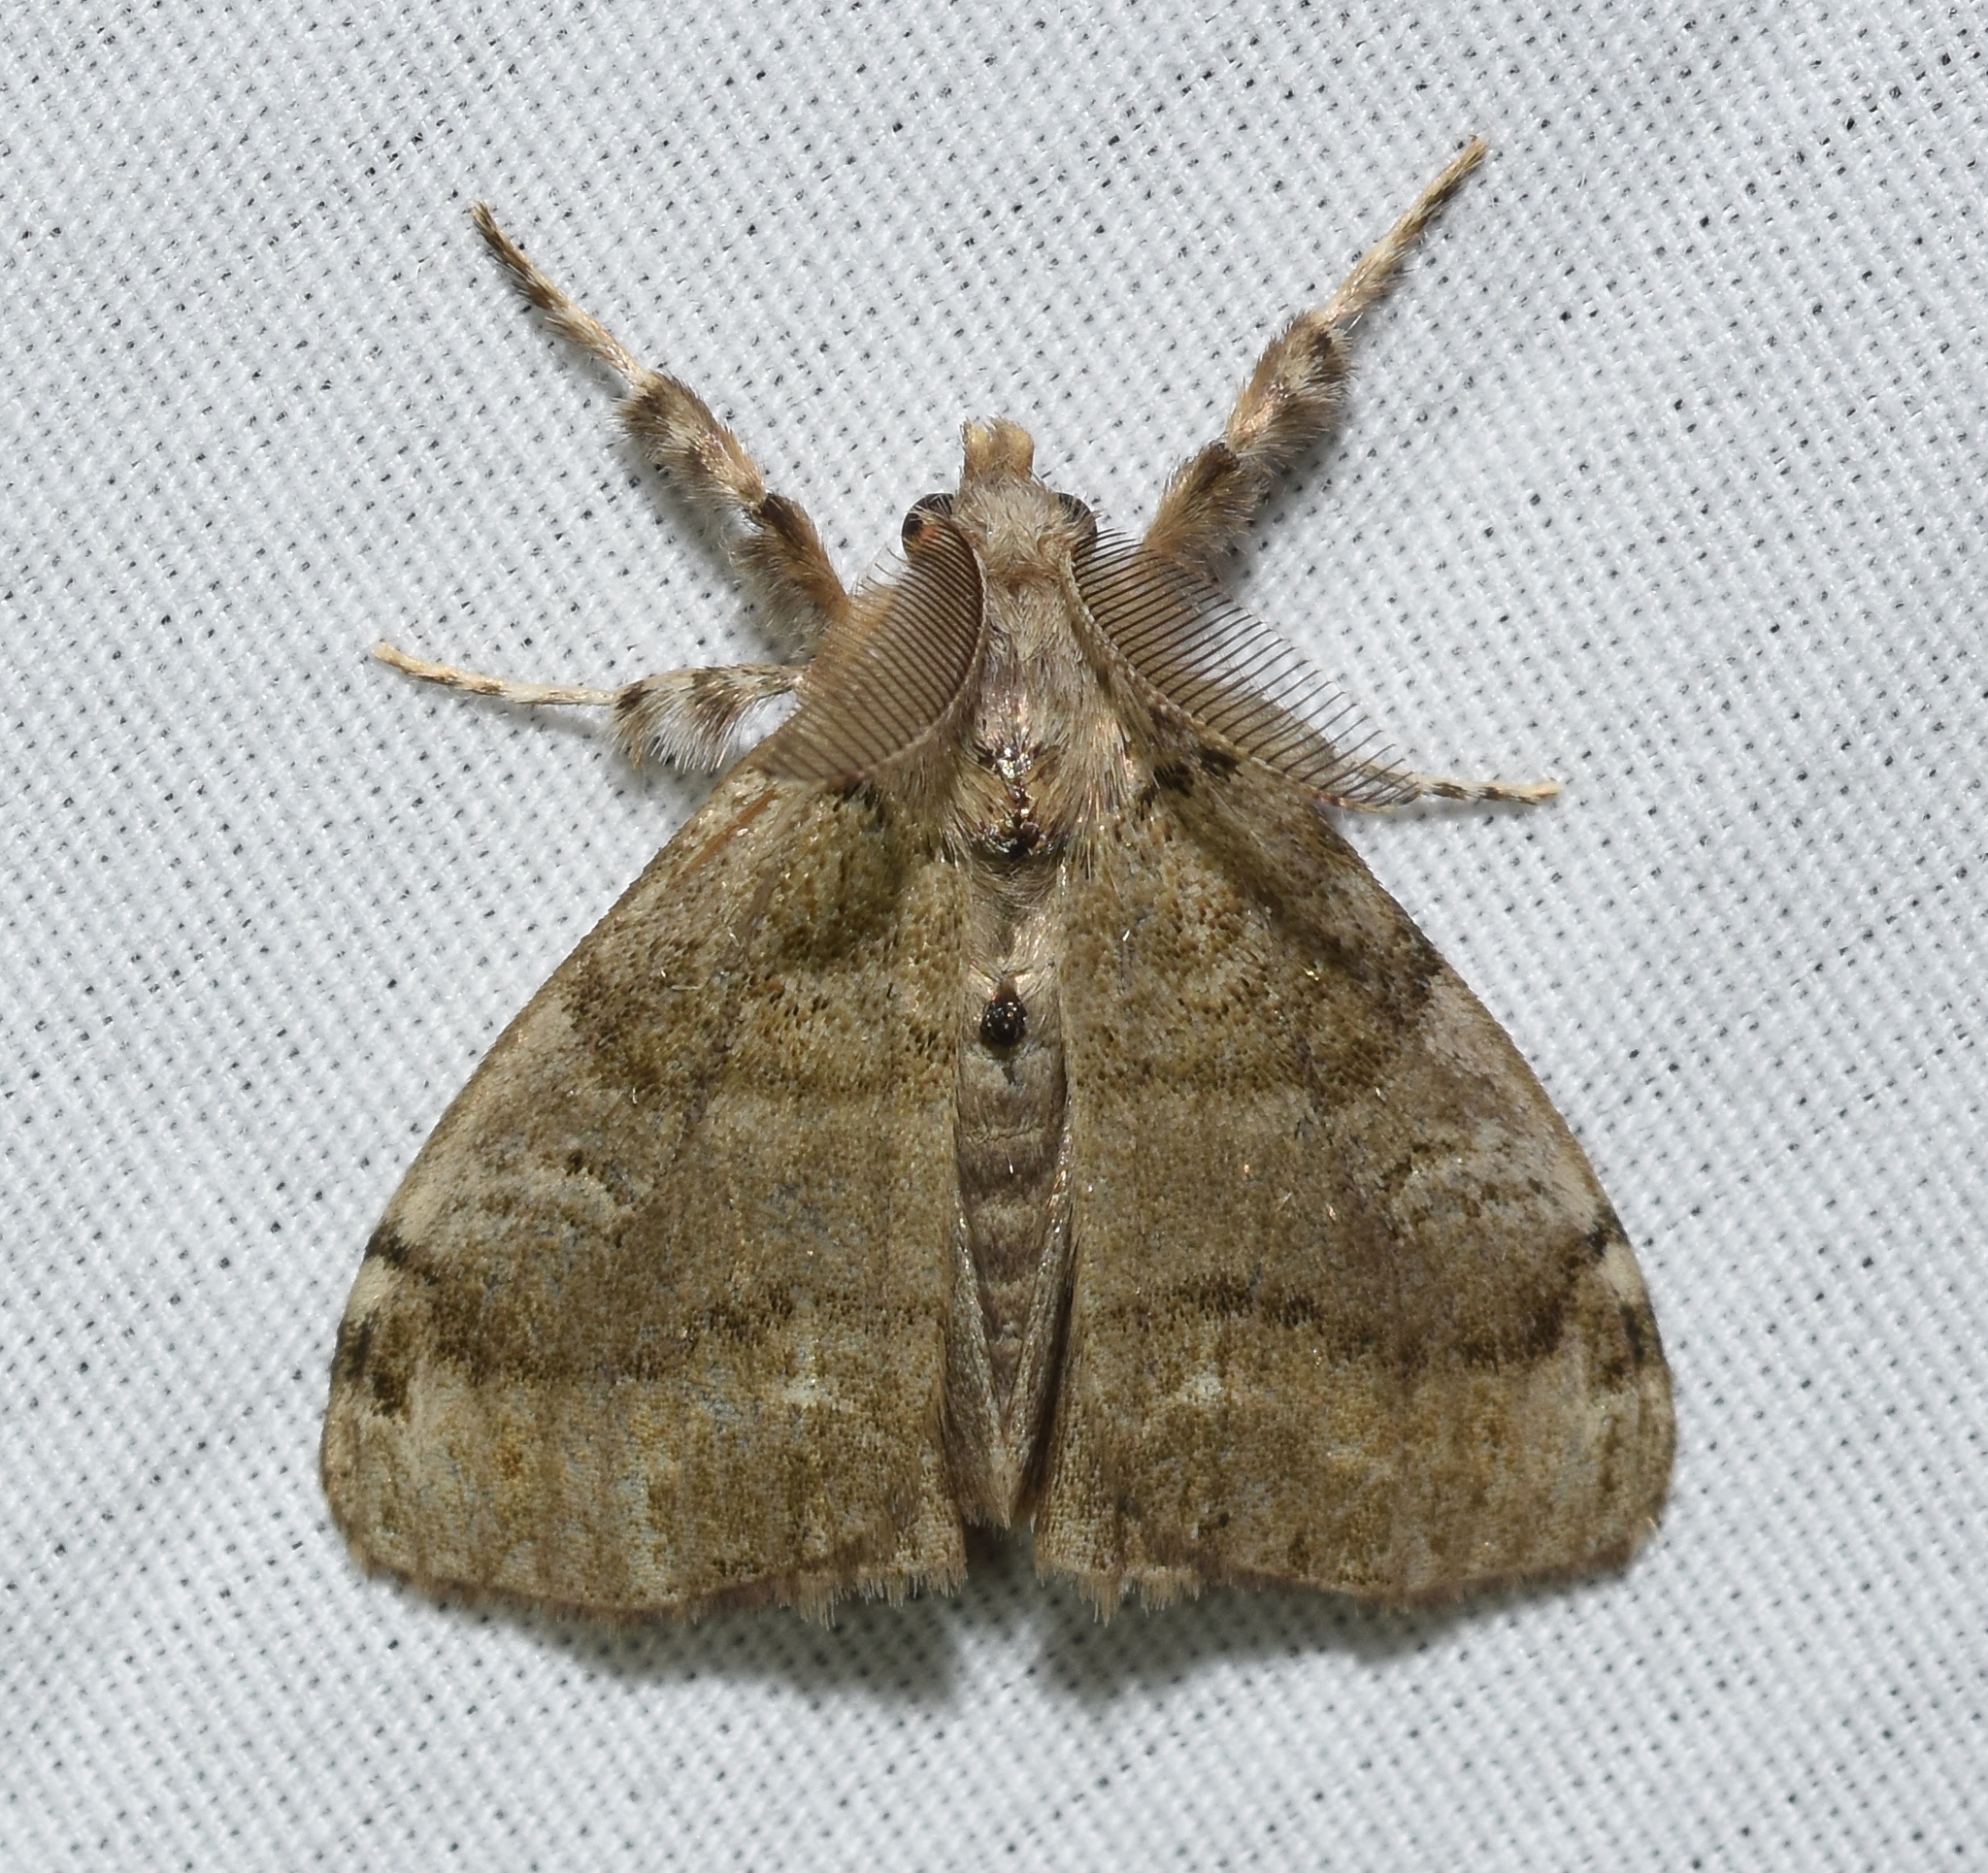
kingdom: Animalia
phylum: Arthropoda
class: Insecta
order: Lepidoptera
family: Erebidae
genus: Orgyia
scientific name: Orgyia leucostigma
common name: White-marked tussock moth
